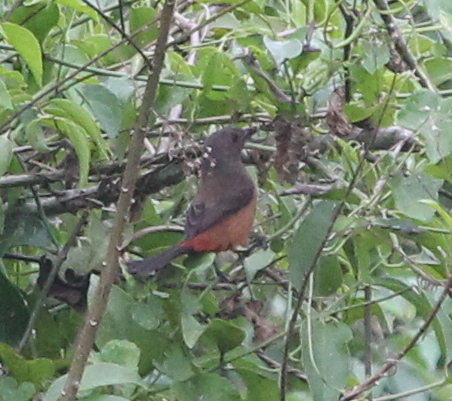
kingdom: Animalia
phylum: Chordata
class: Aves
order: Passeriformes
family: Thraupidae
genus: Ramphocelus
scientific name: Ramphocelus bresilia
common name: Brazilian tanager
